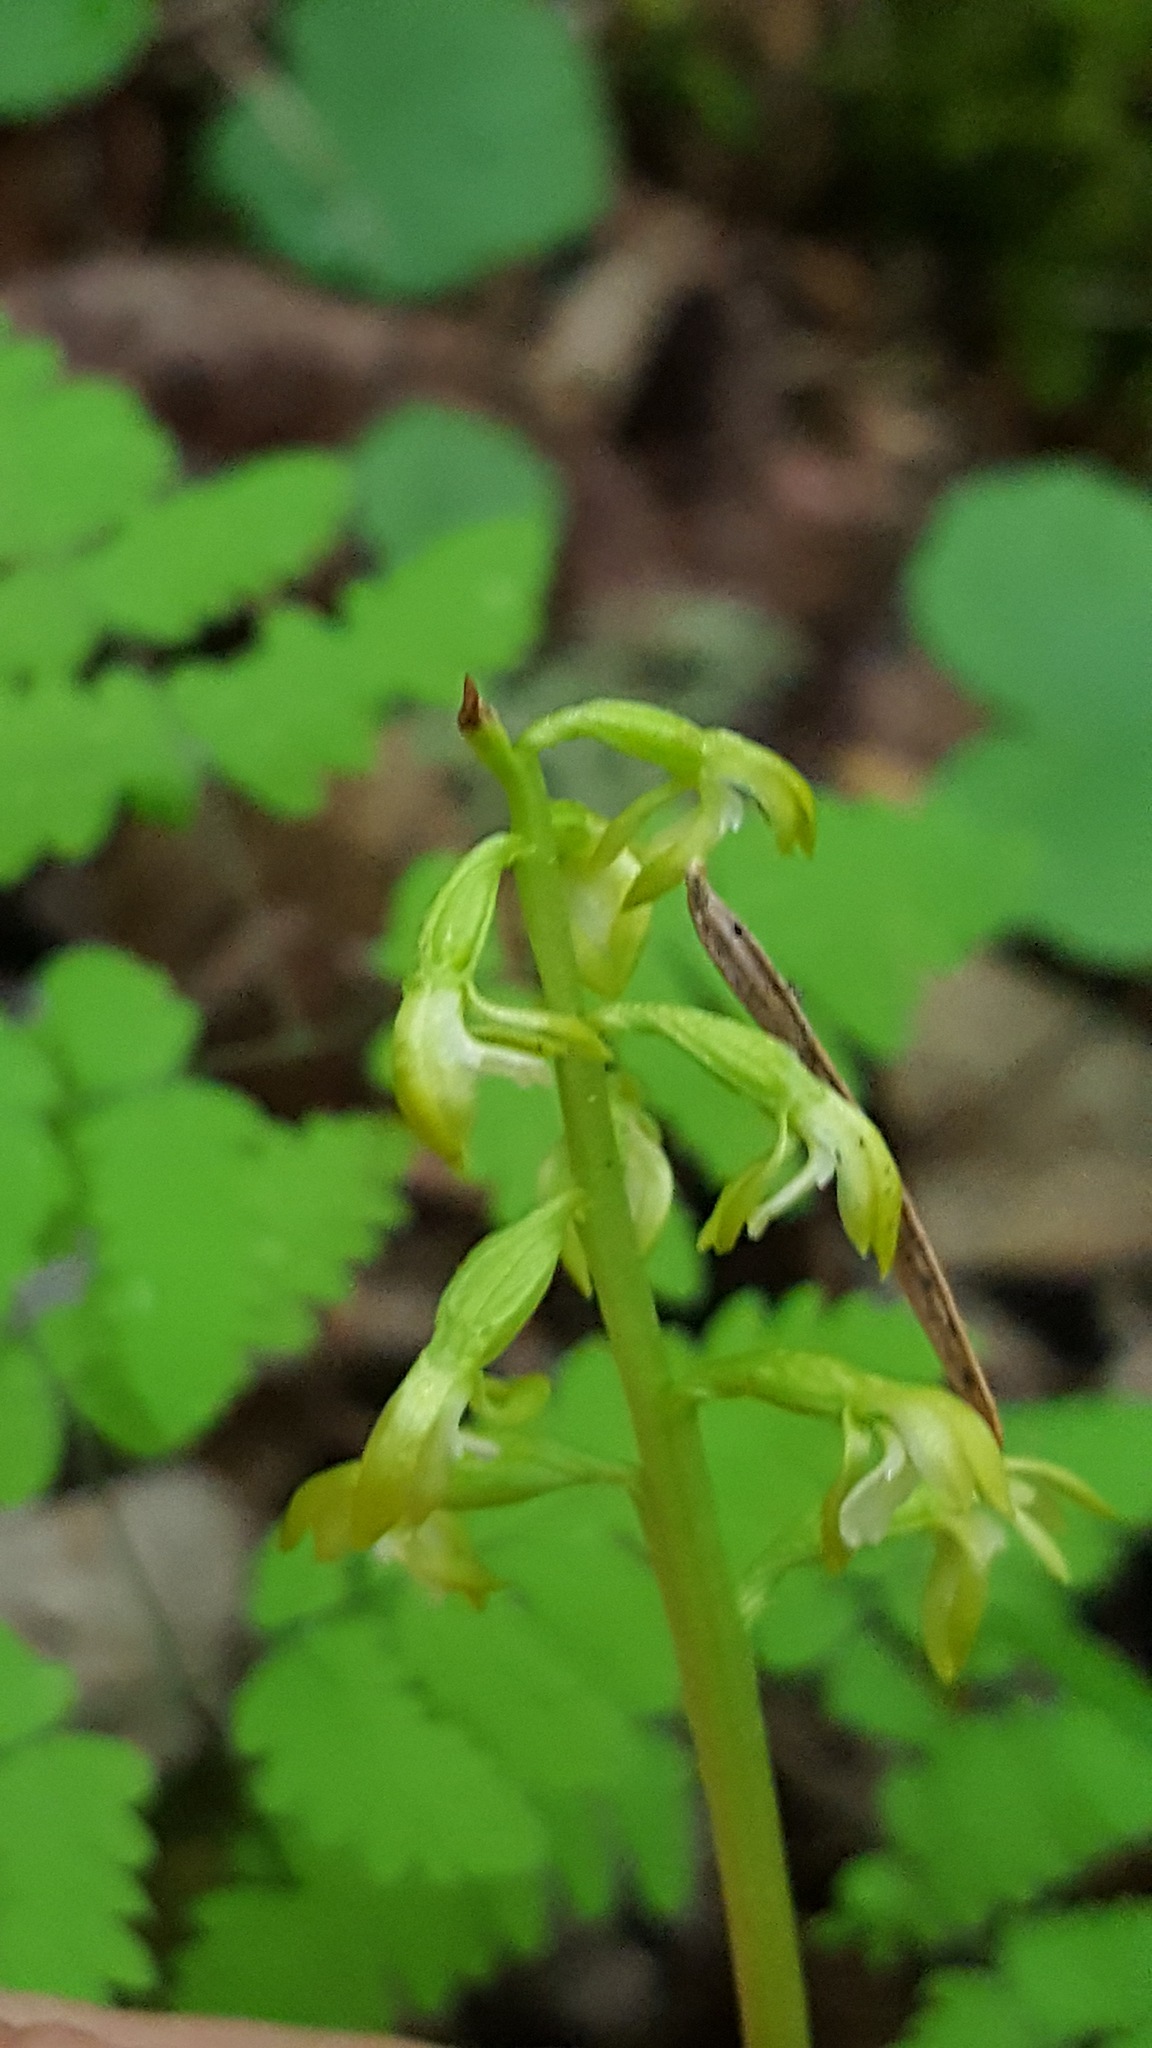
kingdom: Plantae
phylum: Tracheophyta
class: Liliopsida
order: Asparagales
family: Orchidaceae
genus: Corallorhiza
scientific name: Corallorhiza trifida
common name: Yellow coralroot
